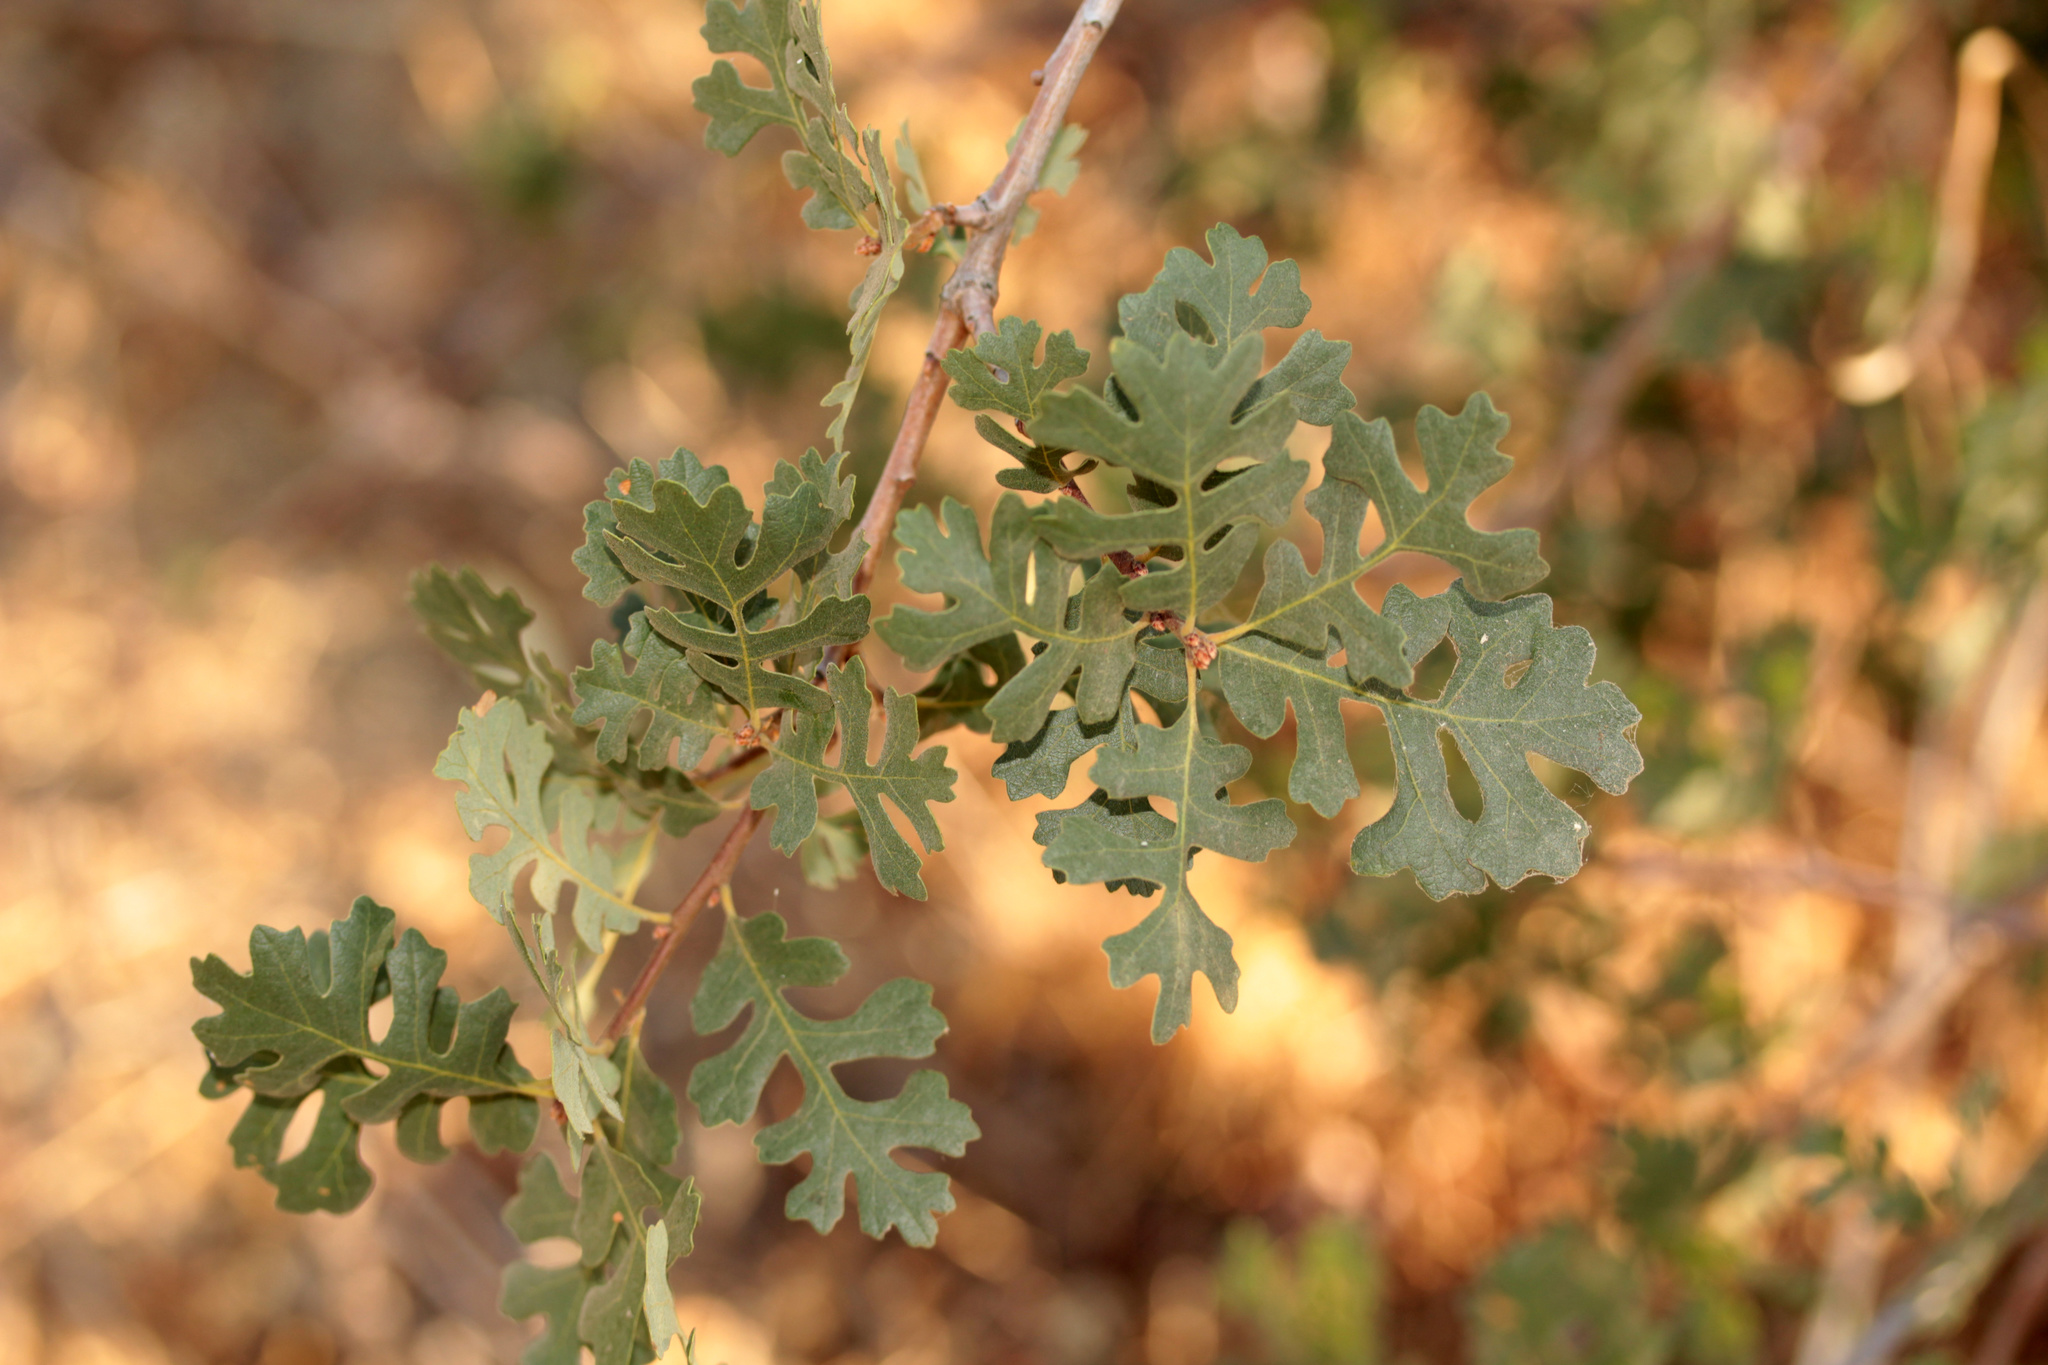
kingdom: Plantae
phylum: Tracheophyta
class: Magnoliopsida
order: Fagales
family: Fagaceae
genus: Quercus
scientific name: Quercus lobata
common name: Valley oak
